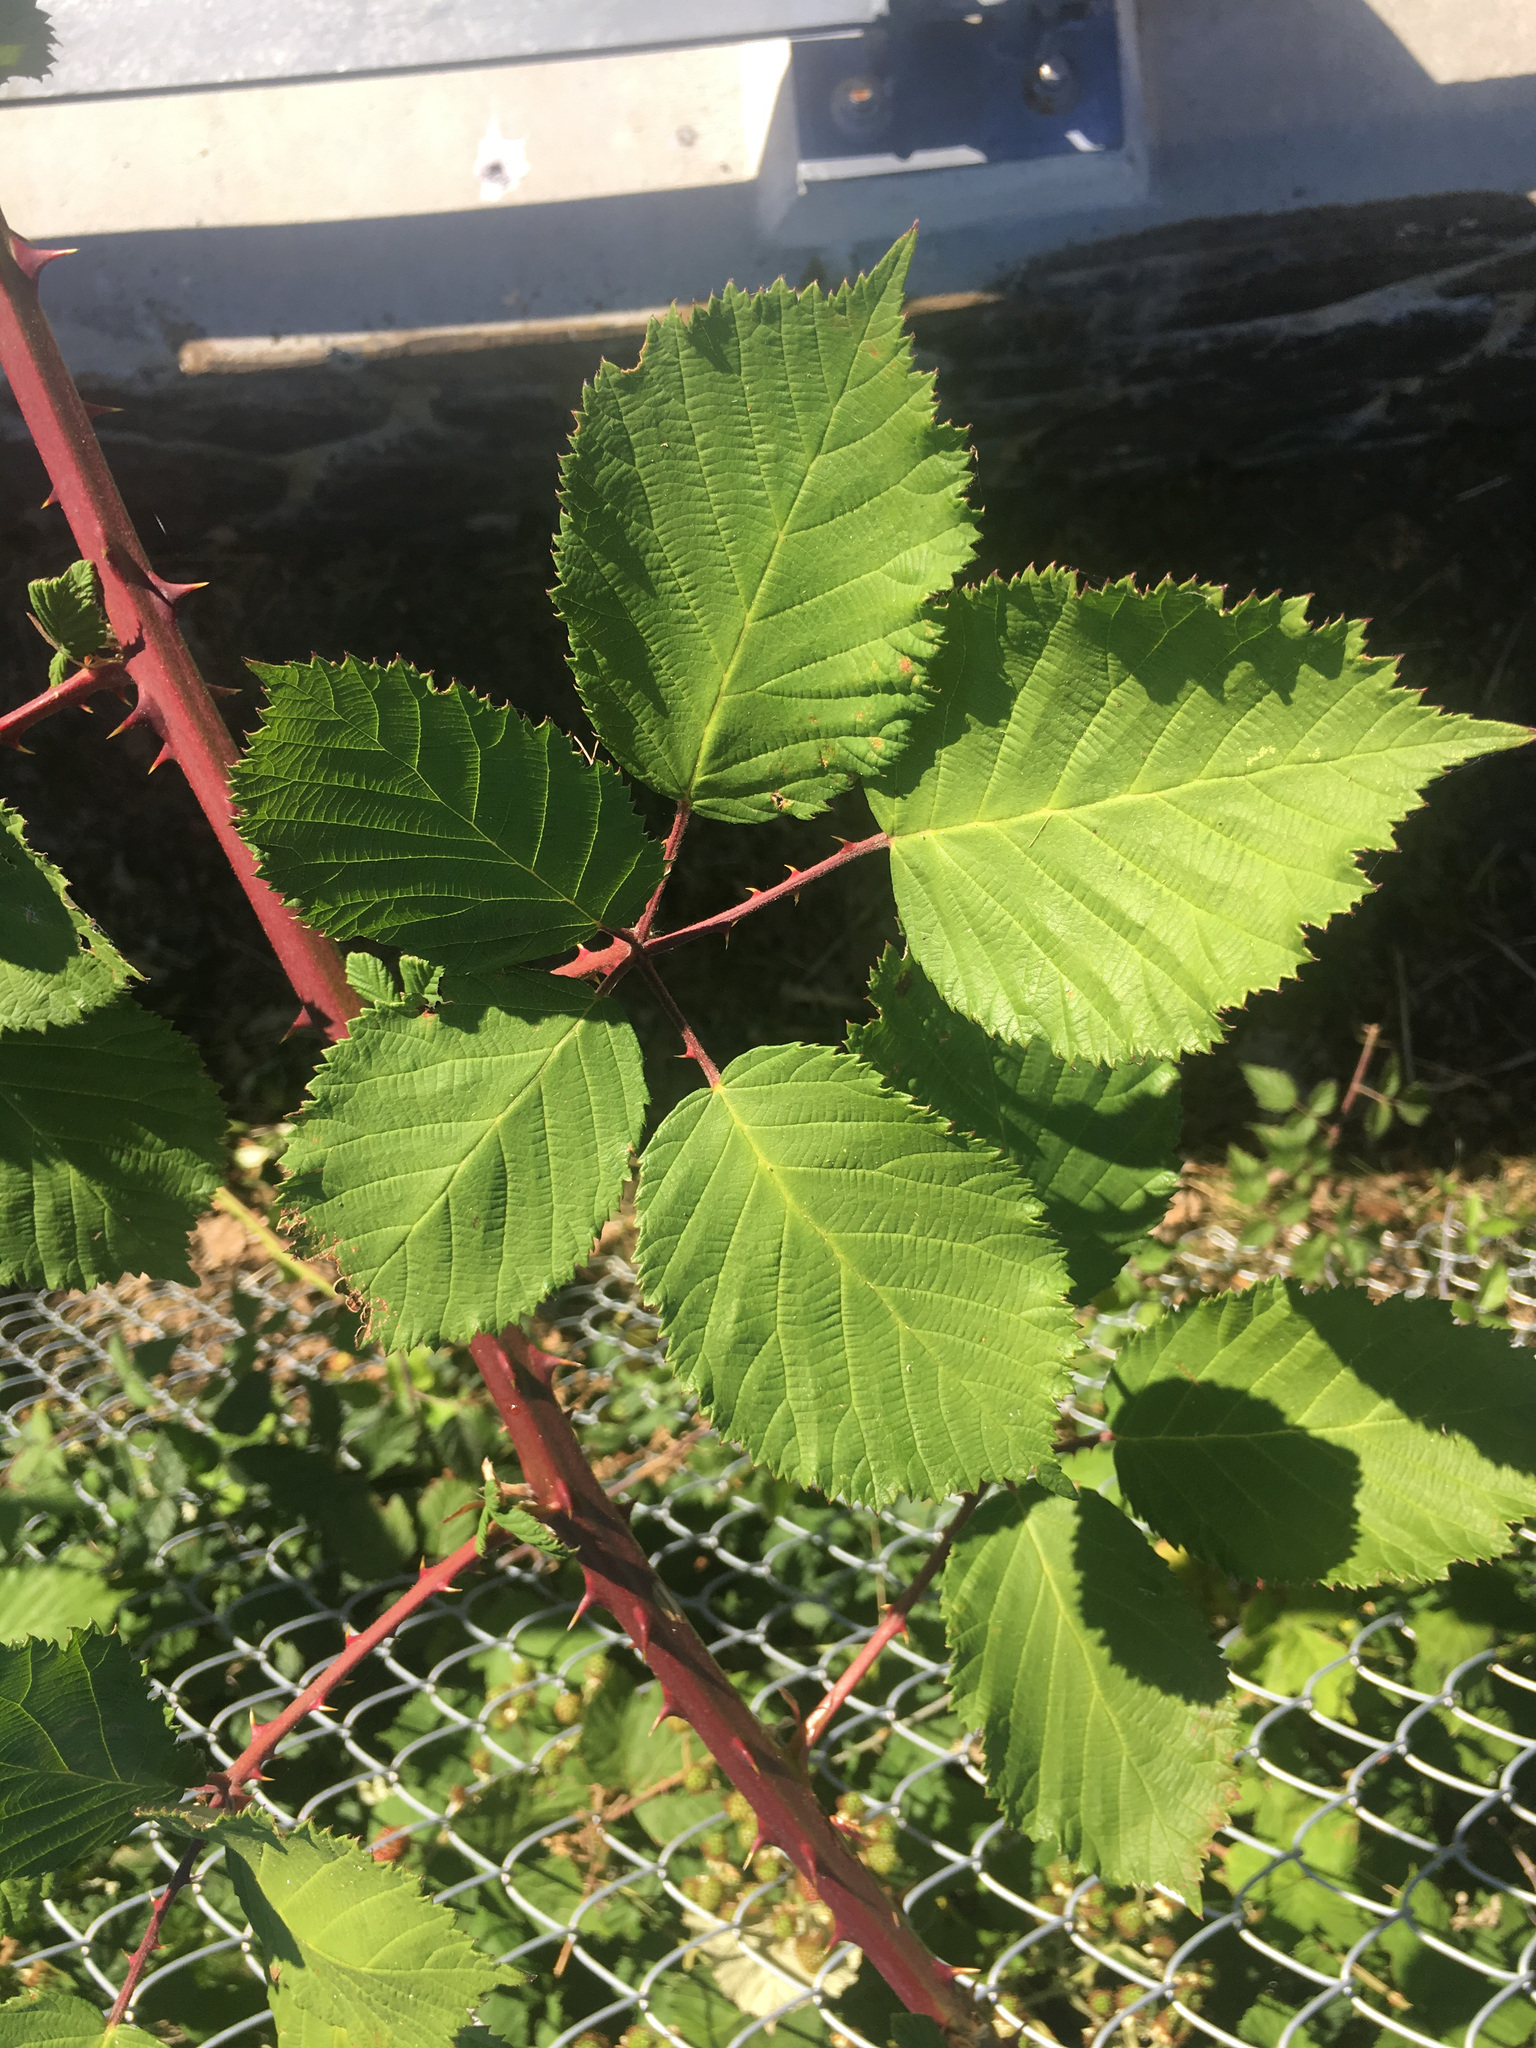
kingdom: Plantae
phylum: Tracheophyta
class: Magnoliopsida
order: Rosales
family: Rosaceae
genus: Rubus
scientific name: Rubus armeniacus
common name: Himalayan blackberry
